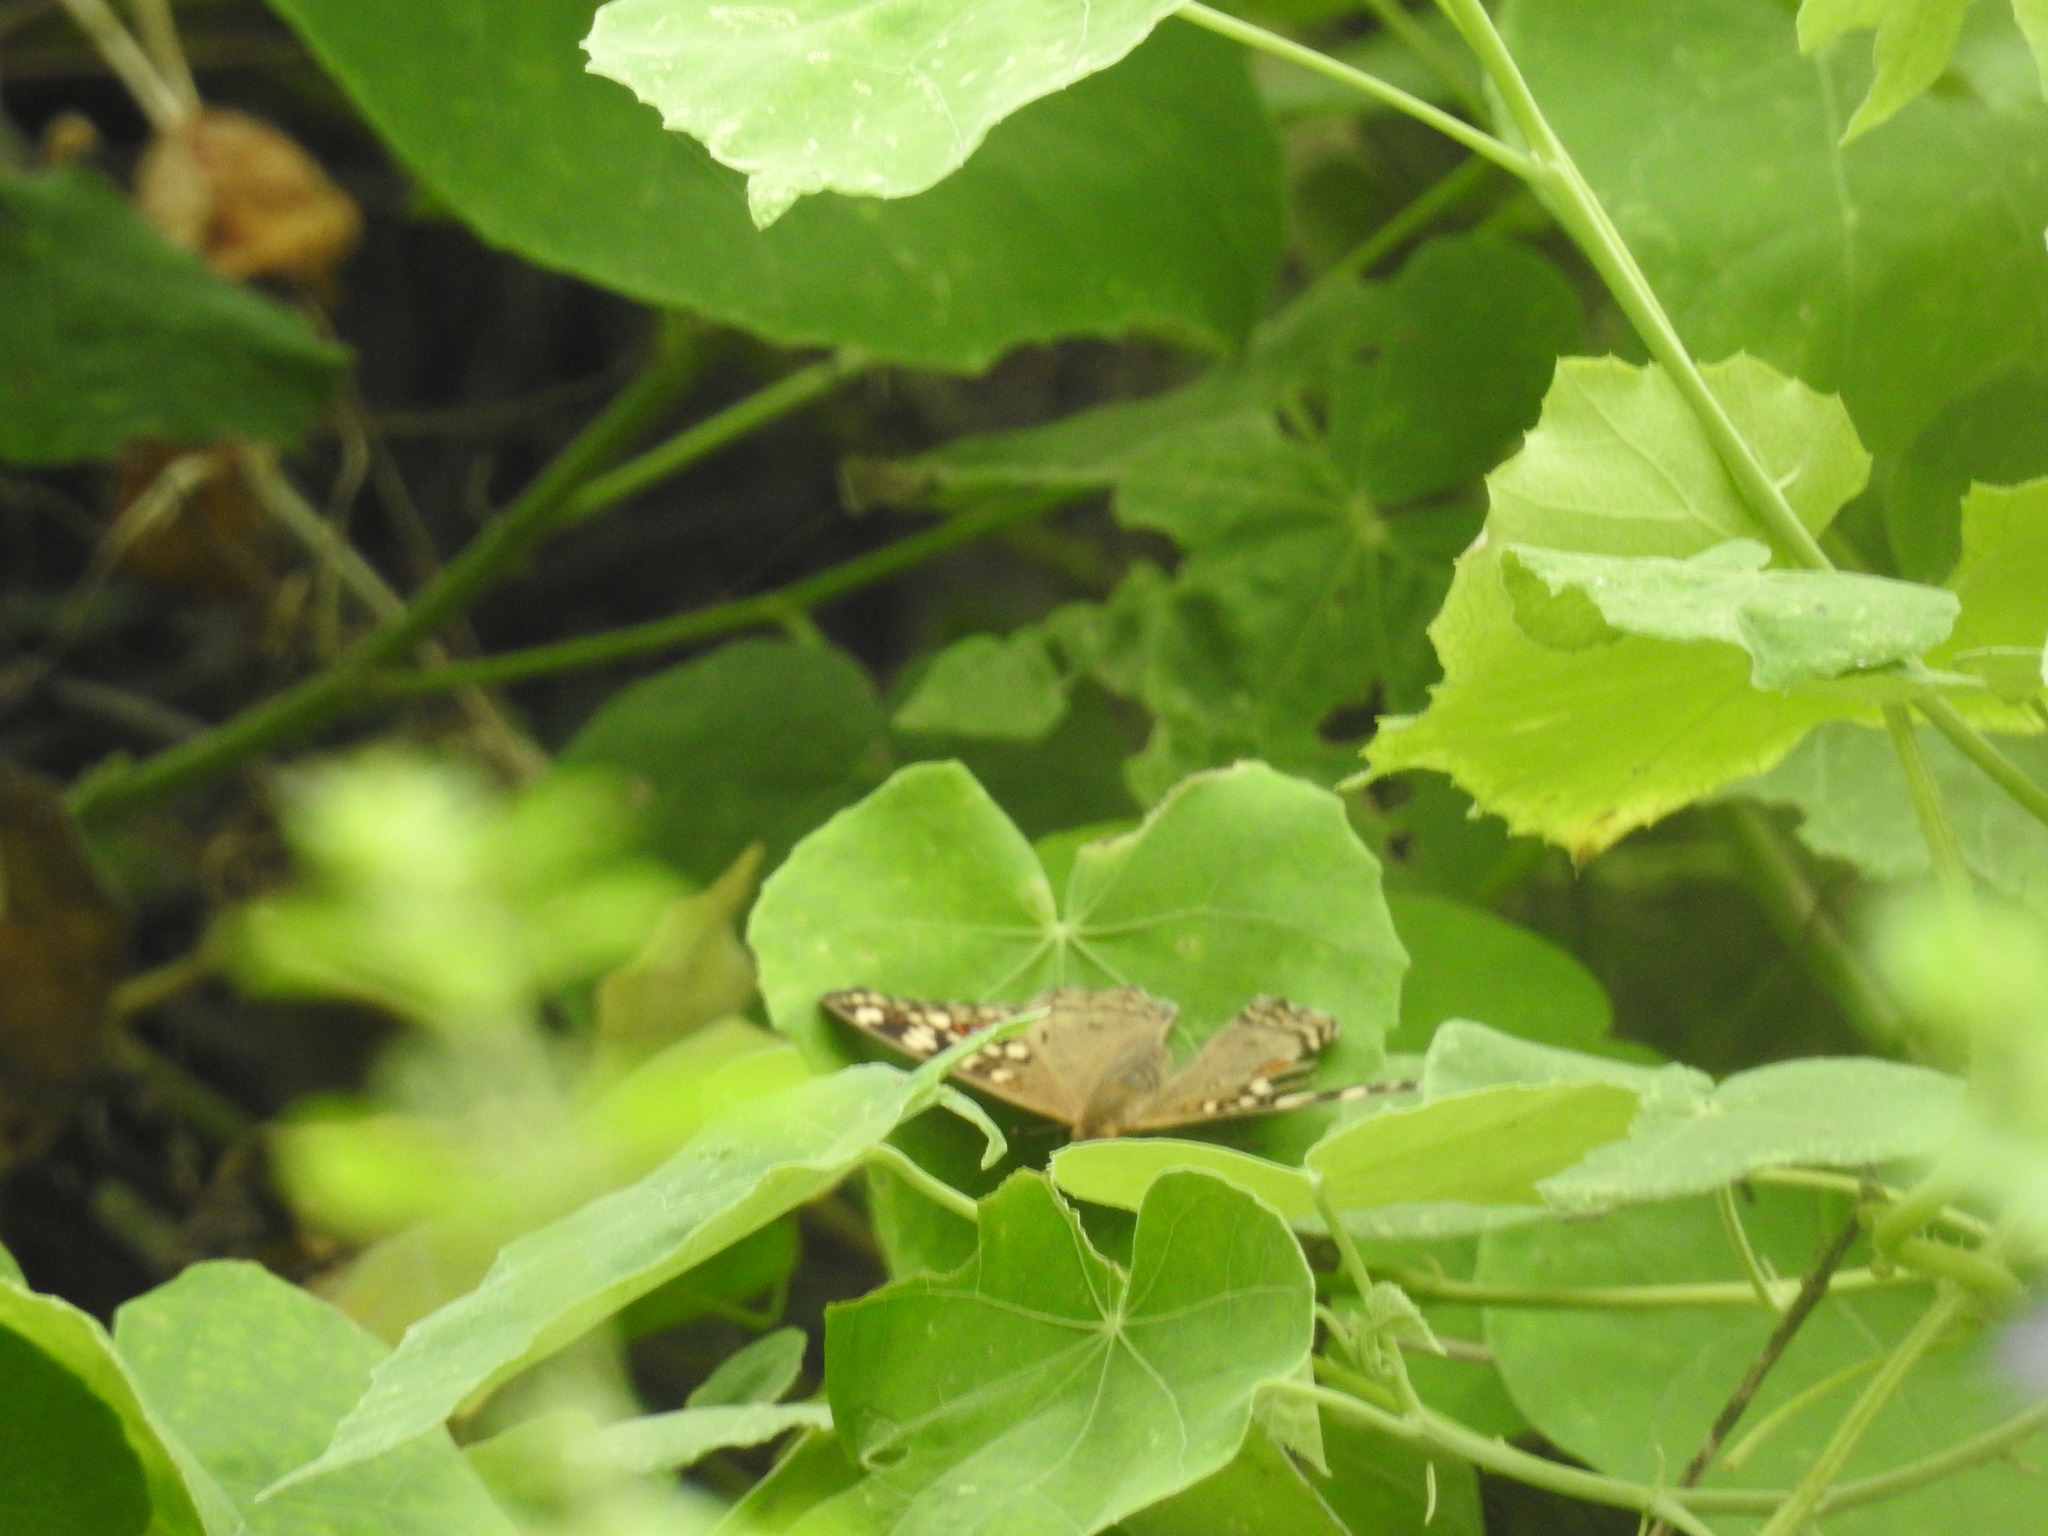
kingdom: Animalia
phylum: Arthropoda
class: Insecta
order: Lepidoptera
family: Nymphalidae
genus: Junonia
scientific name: Junonia lemonias
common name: Lemon pansy
